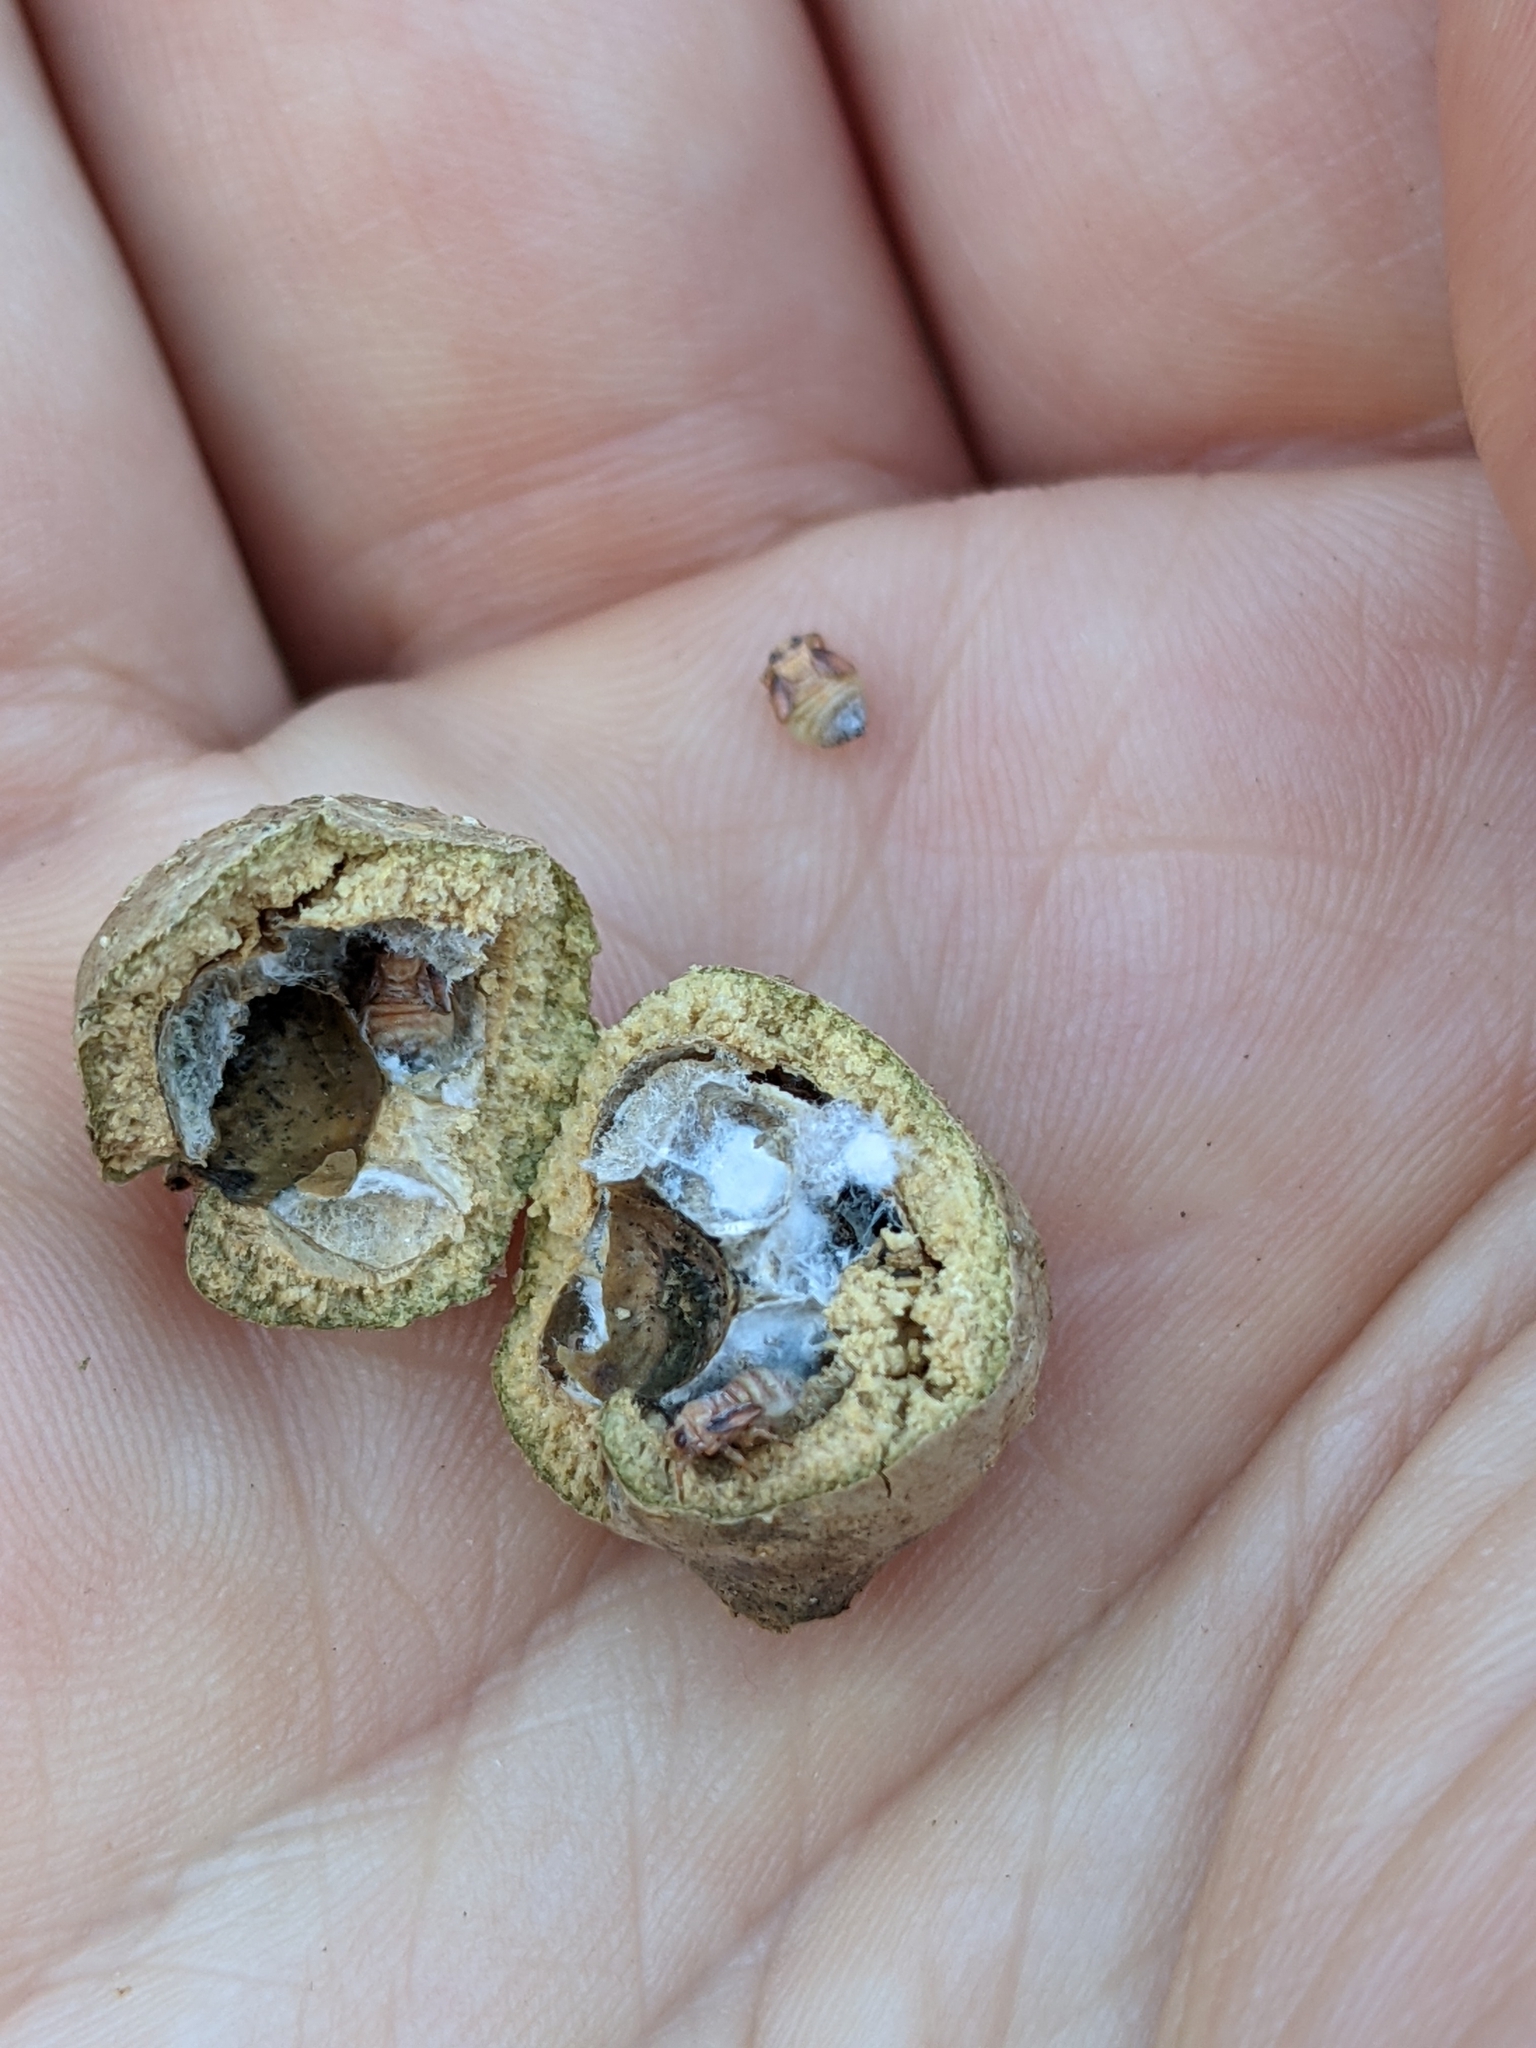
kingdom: Animalia
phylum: Arthropoda
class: Insecta
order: Hemiptera
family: Aphalaridae
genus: Pachypsylla
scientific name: Pachypsylla venusta
